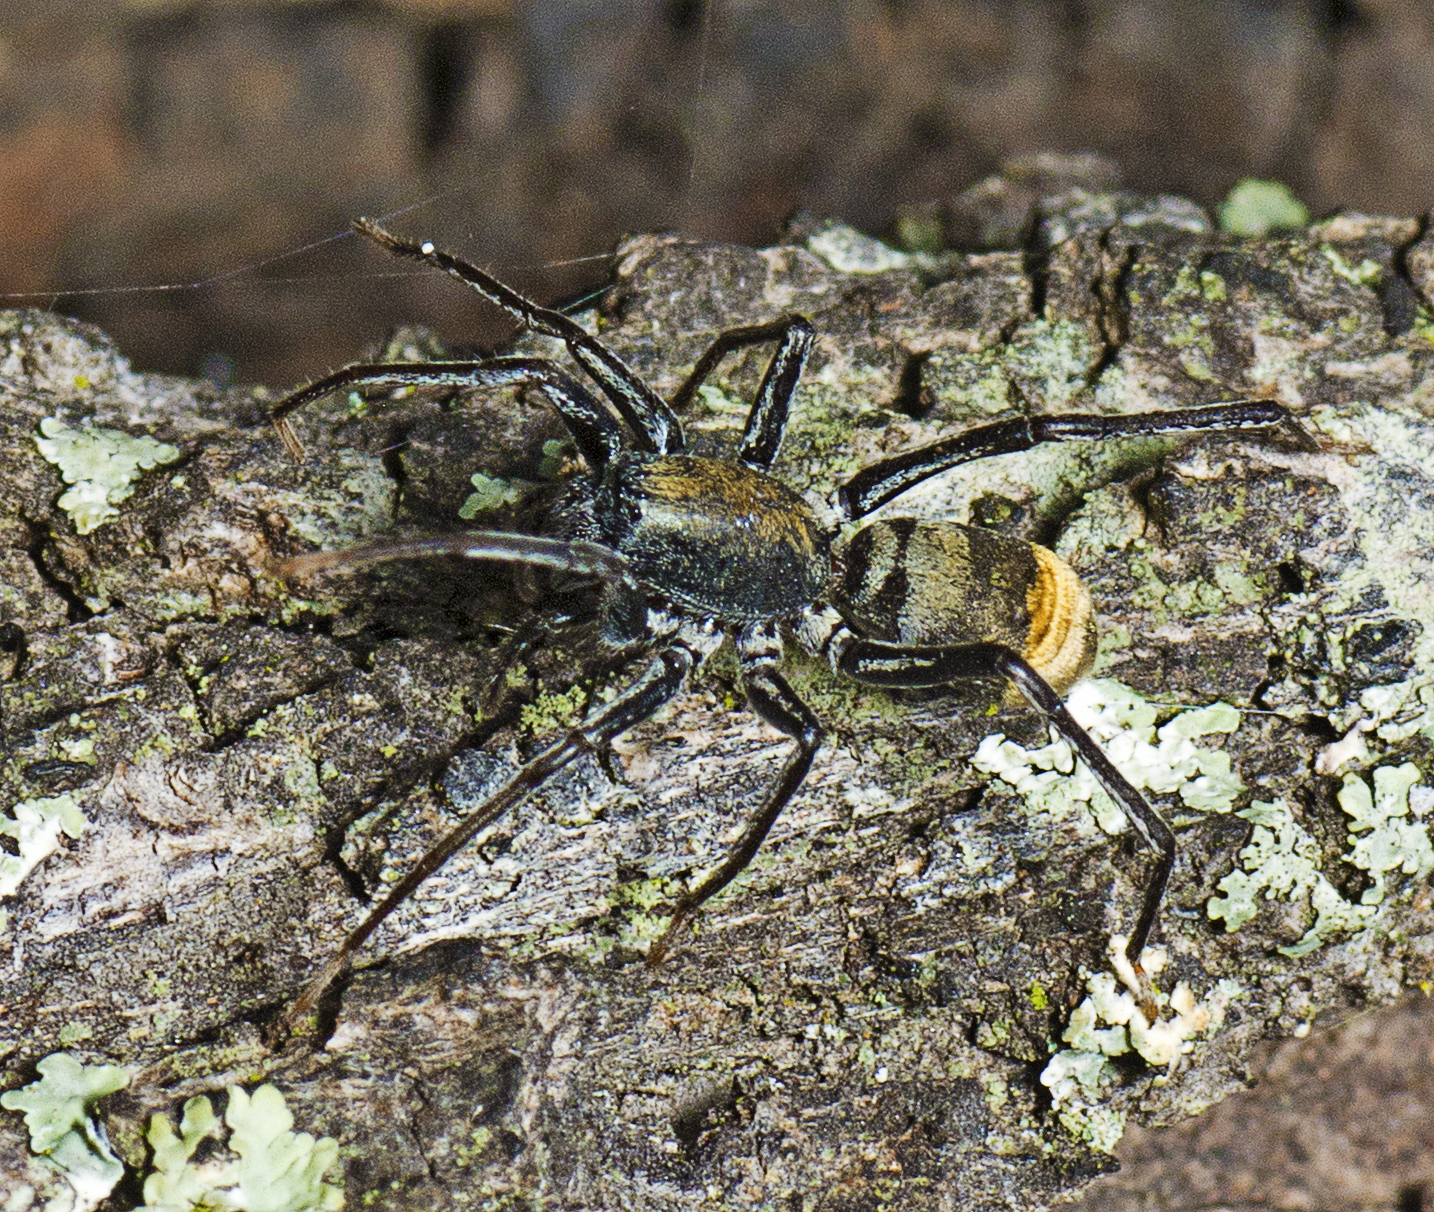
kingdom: Animalia
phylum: Arthropoda
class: Arachnida
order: Araneae
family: Corinnidae
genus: Nyssus
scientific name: Nyssus luteofinis
